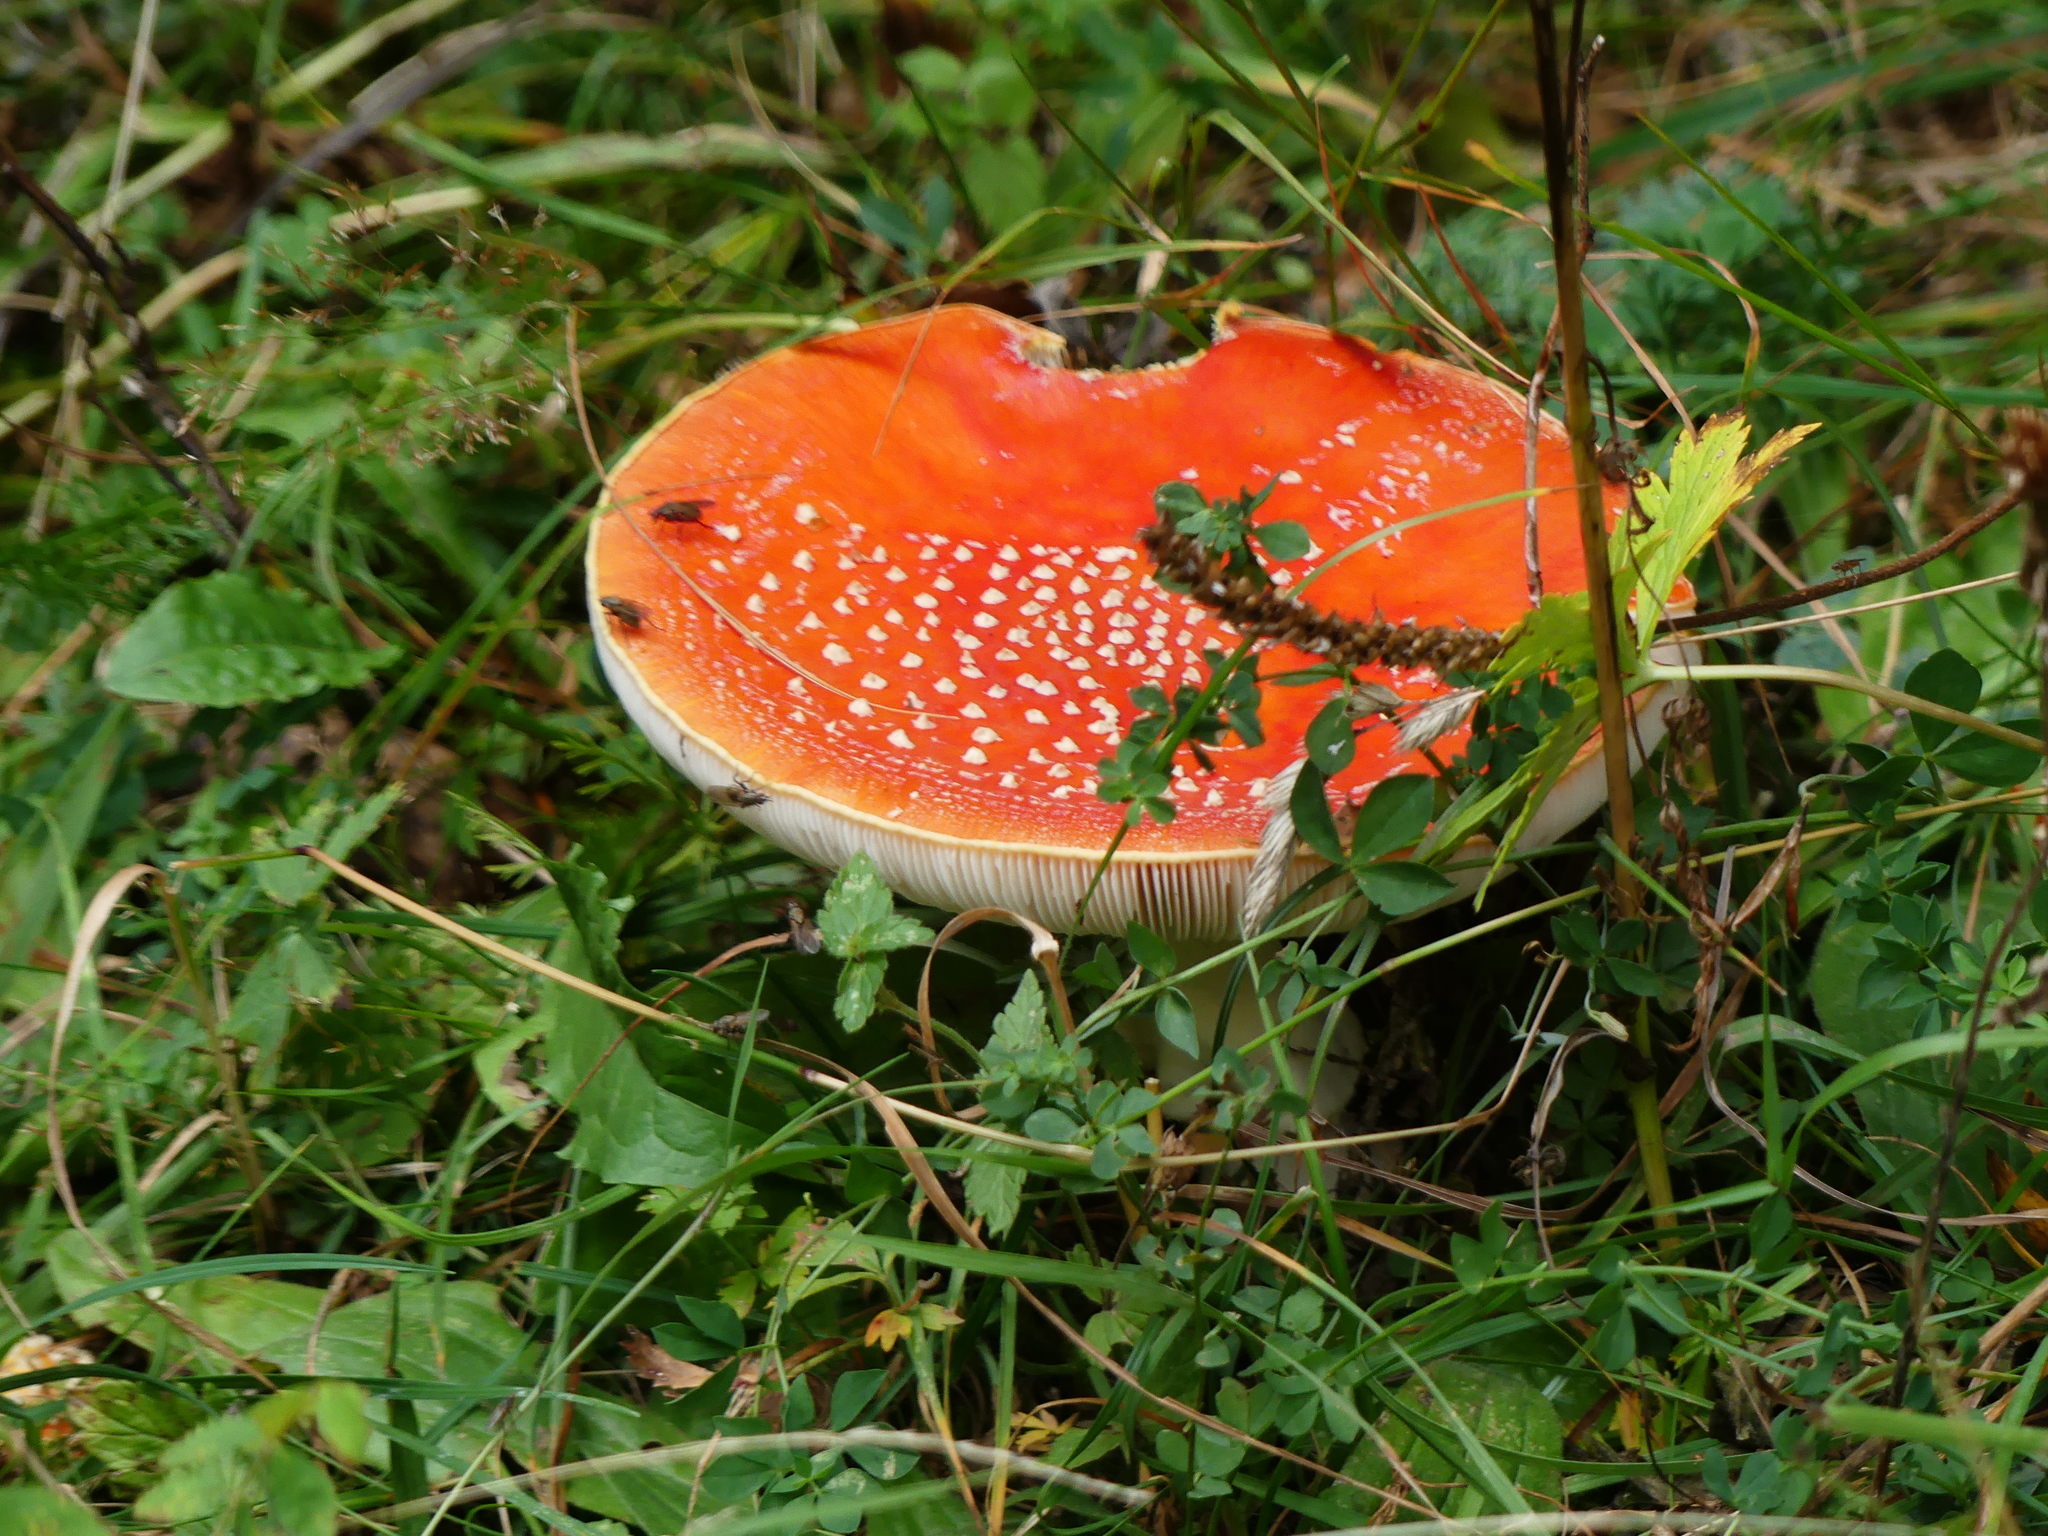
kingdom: Fungi
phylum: Basidiomycota
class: Agaricomycetes
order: Agaricales
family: Amanitaceae
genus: Amanita
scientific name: Amanita muscaria
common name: Fly agaric
